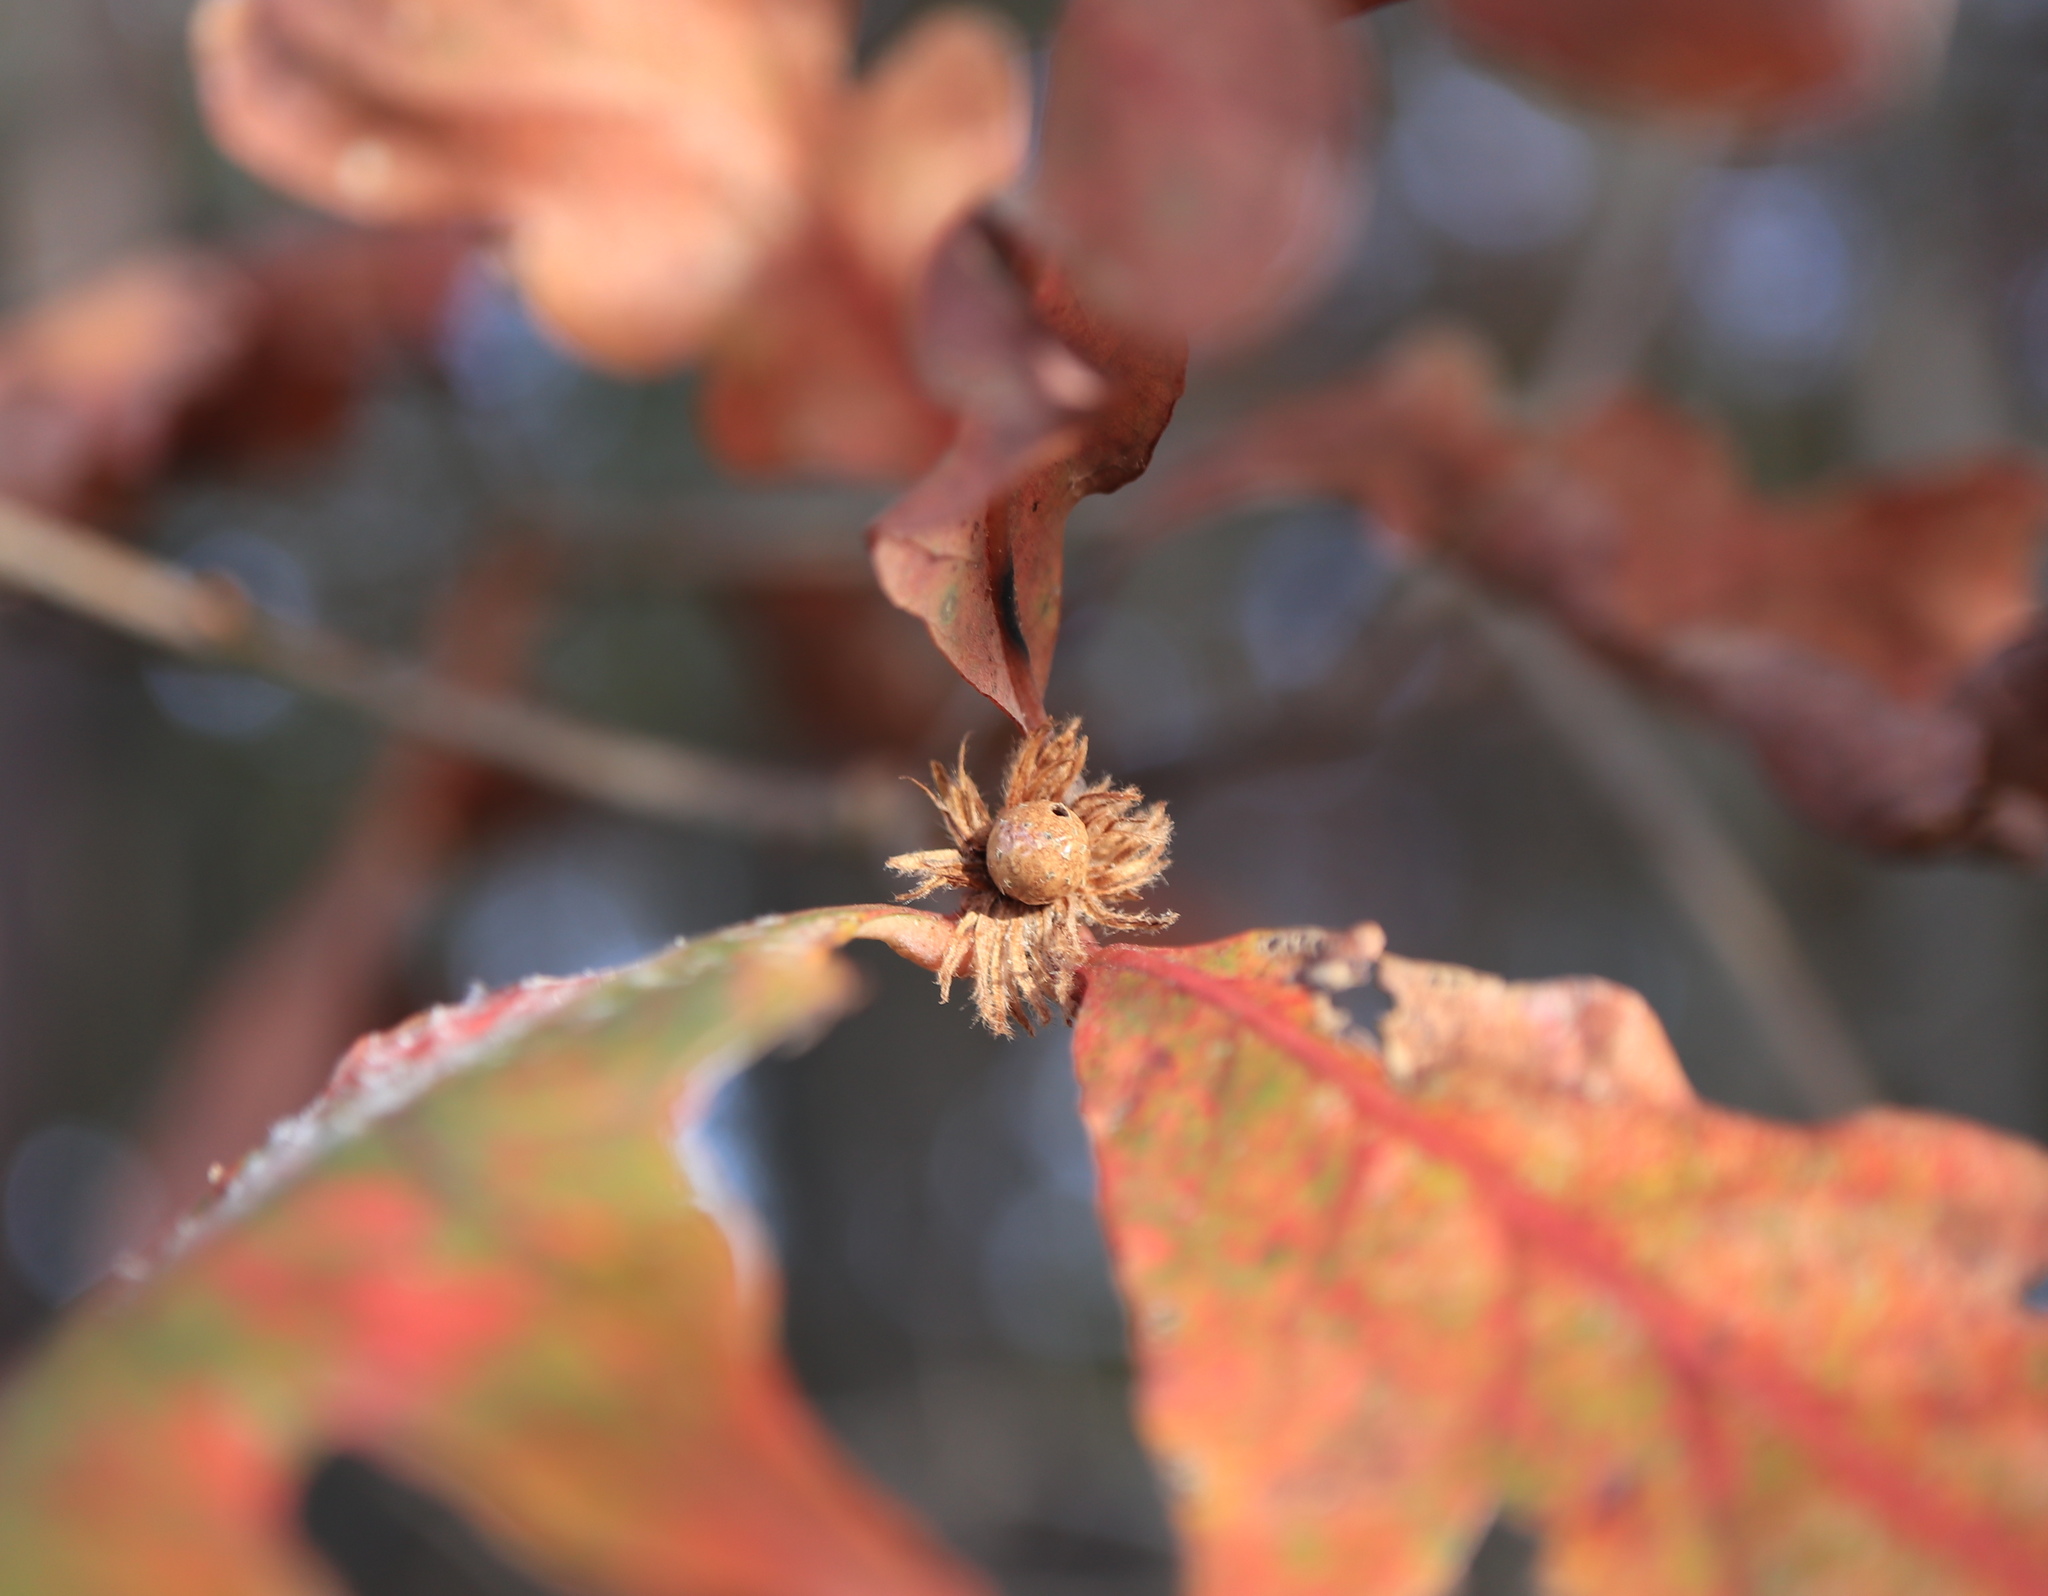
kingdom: Animalia
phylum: Arthropoda
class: Insecta
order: Hymenoptera
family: Cynipidae
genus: Andricus
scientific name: Andricus
